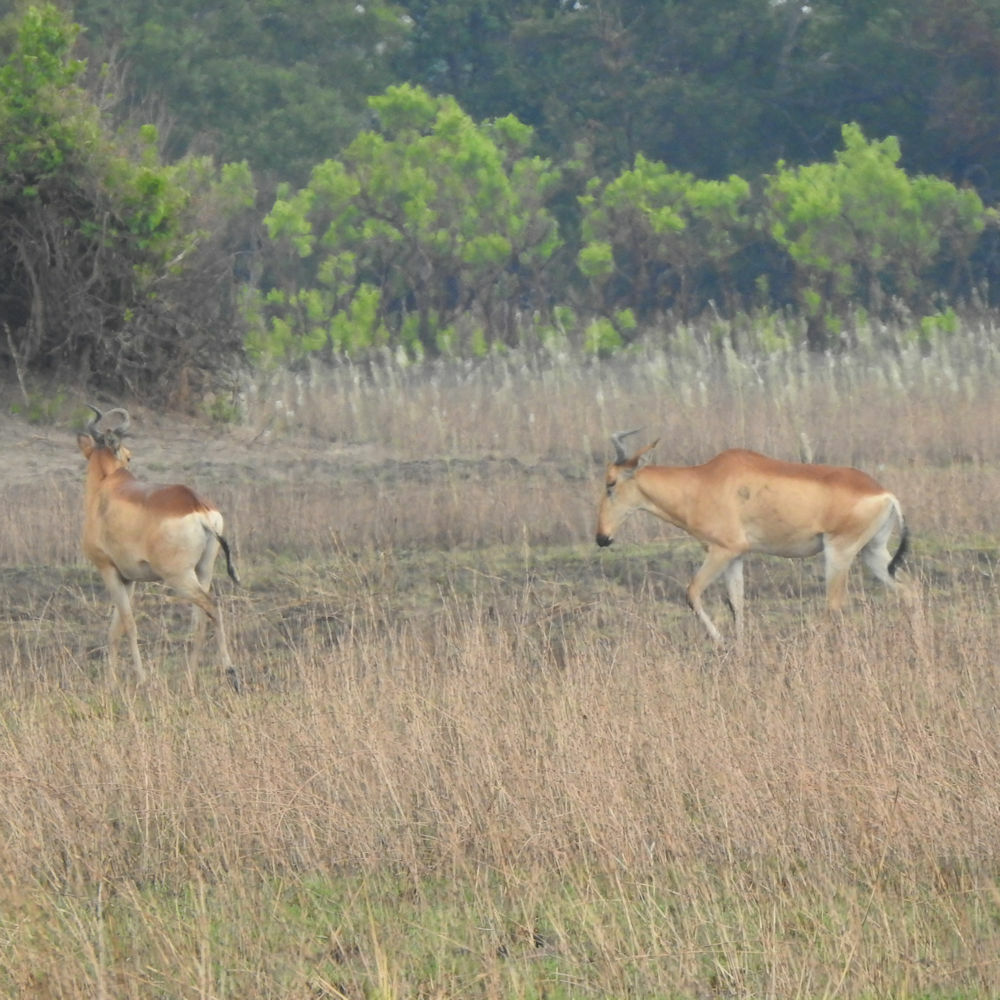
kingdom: Animalia
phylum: Chordata
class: Mammalia
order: Artiodactyla
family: Bovidae
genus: Alcelaphus
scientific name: Alcelaphus buselaphus
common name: Hartebeest
